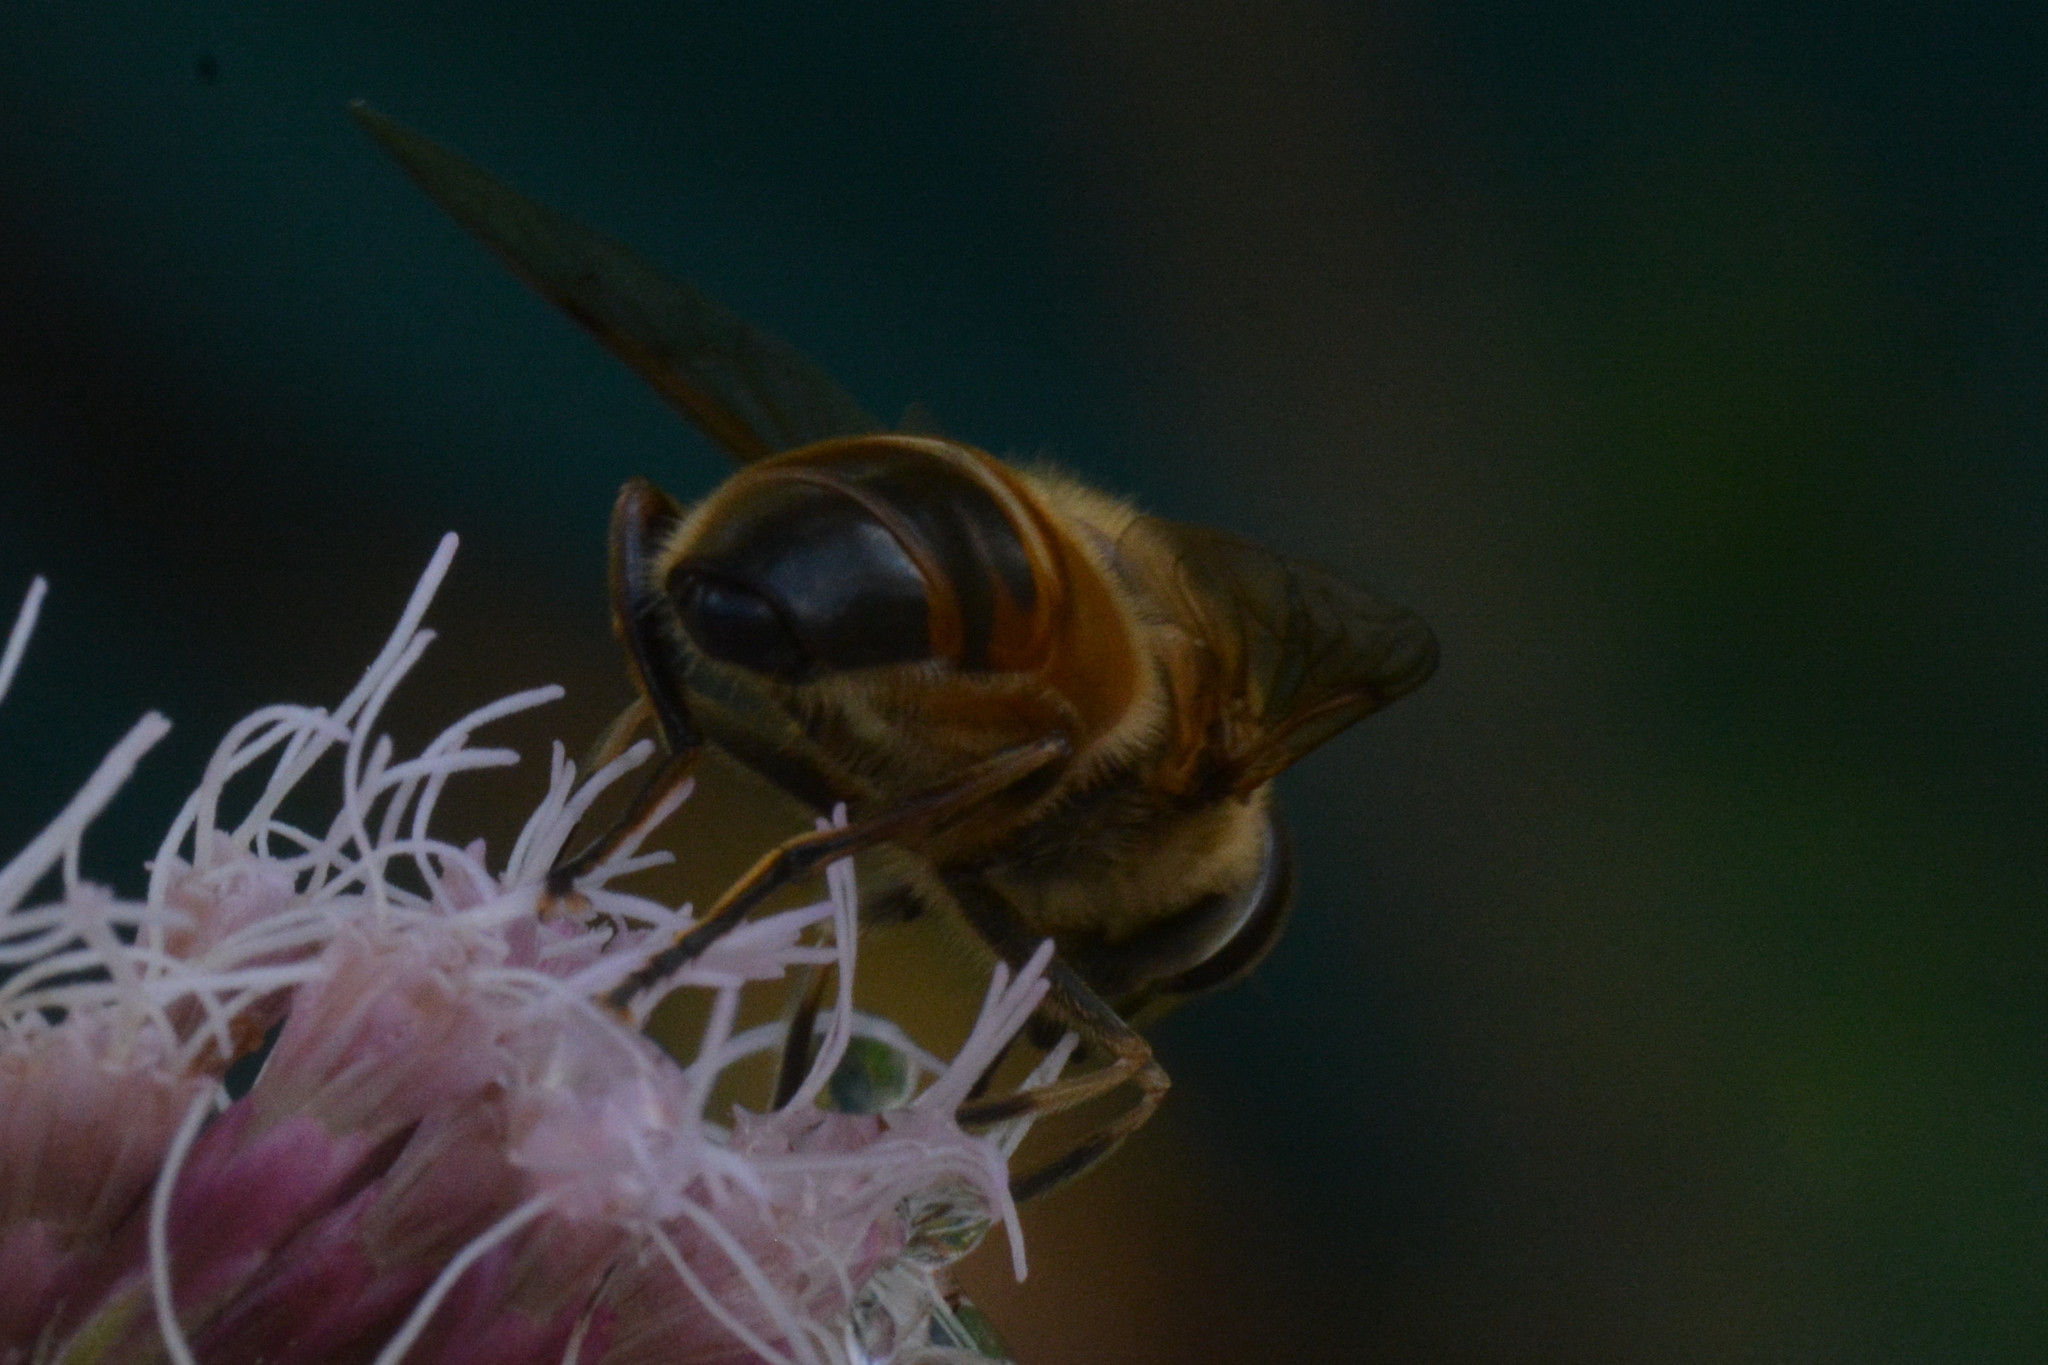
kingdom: Animalia
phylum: Arthropoda
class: Insecta
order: Diptera
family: Syrphidae
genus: Eristalis
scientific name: Eristalis tenax
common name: Drone fly
